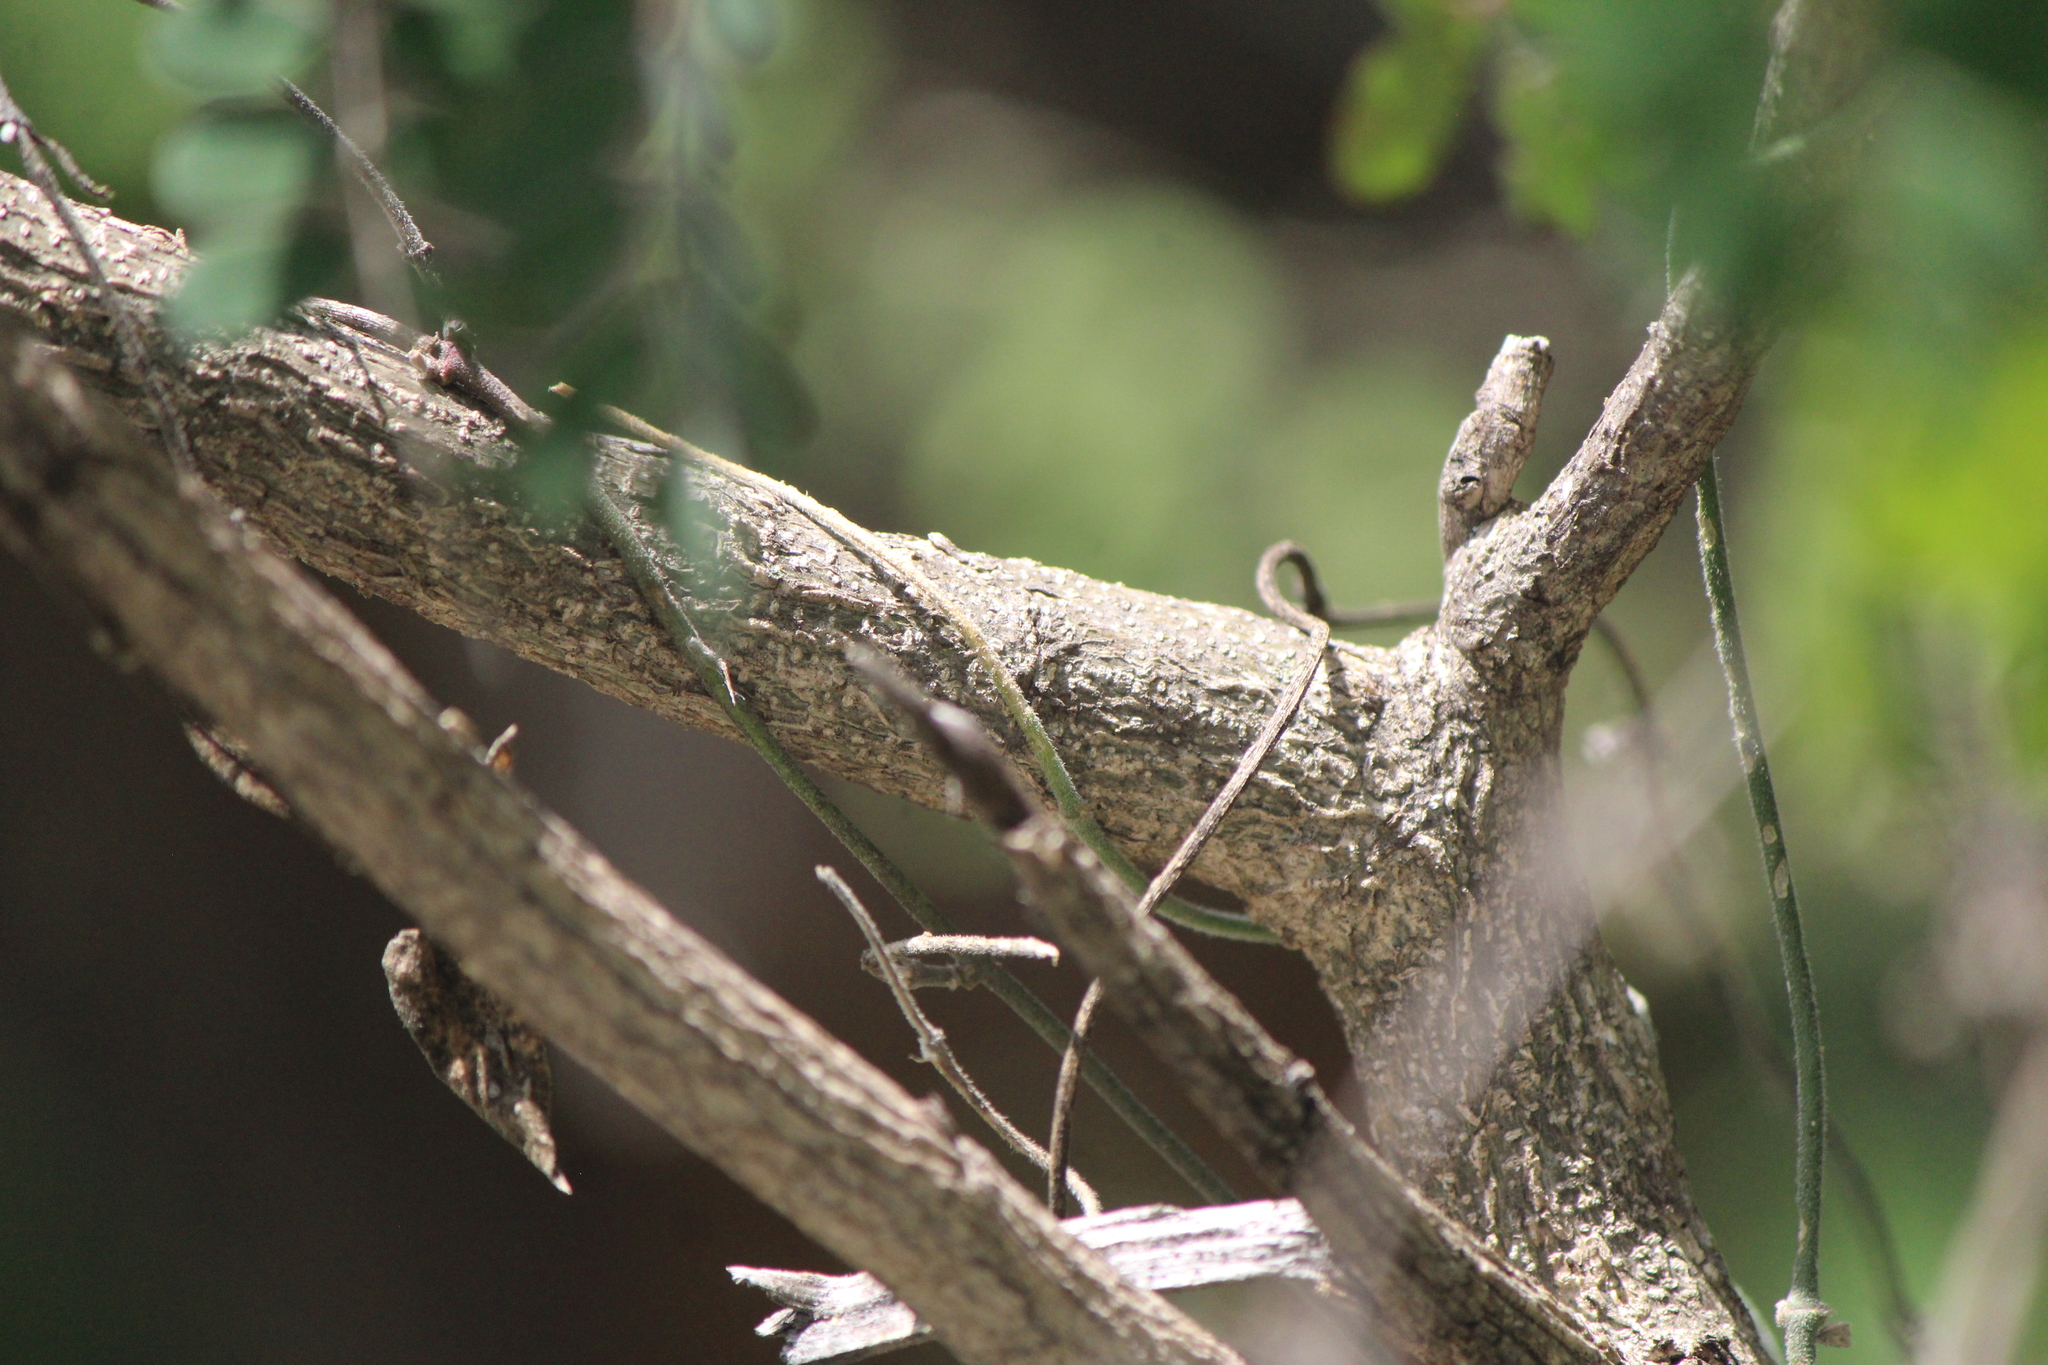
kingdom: Plantae
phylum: Tracheophyta
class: Magnoliopsida
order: Fabales
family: Fabaceae
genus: Senna
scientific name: Senna polyantha
